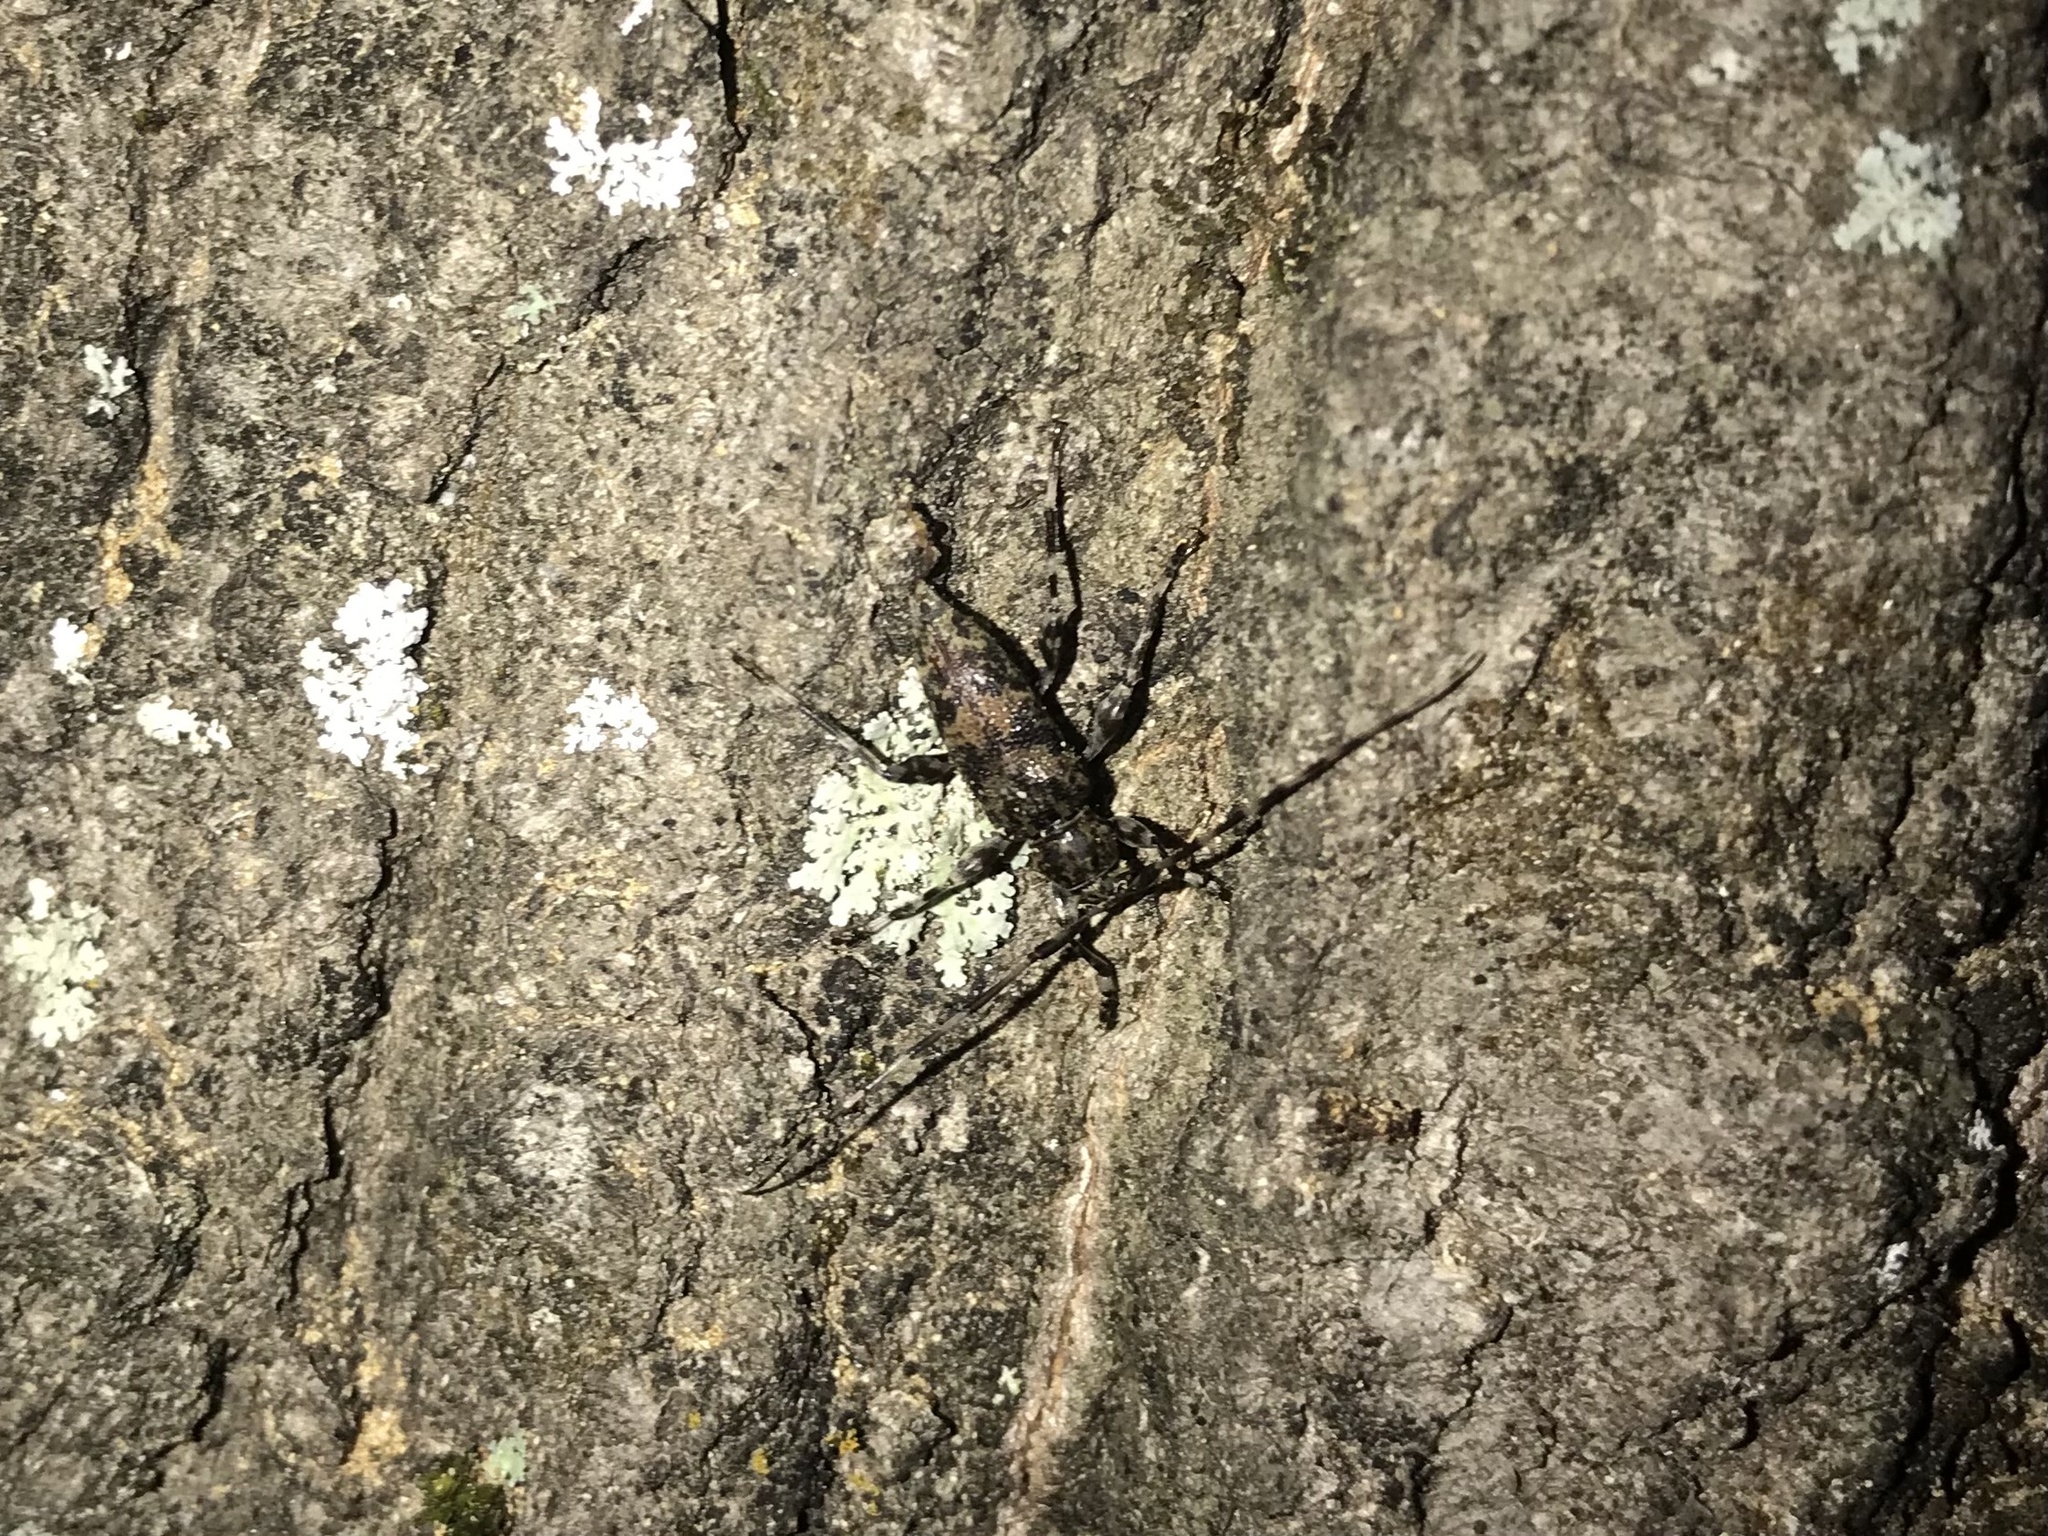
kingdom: Animalia
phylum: Arthropoda
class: Insecta
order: Coleoptera
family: Cerambycidae
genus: Graphisurus
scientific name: Graphisurus fasciatus
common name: Banded graphisurus
